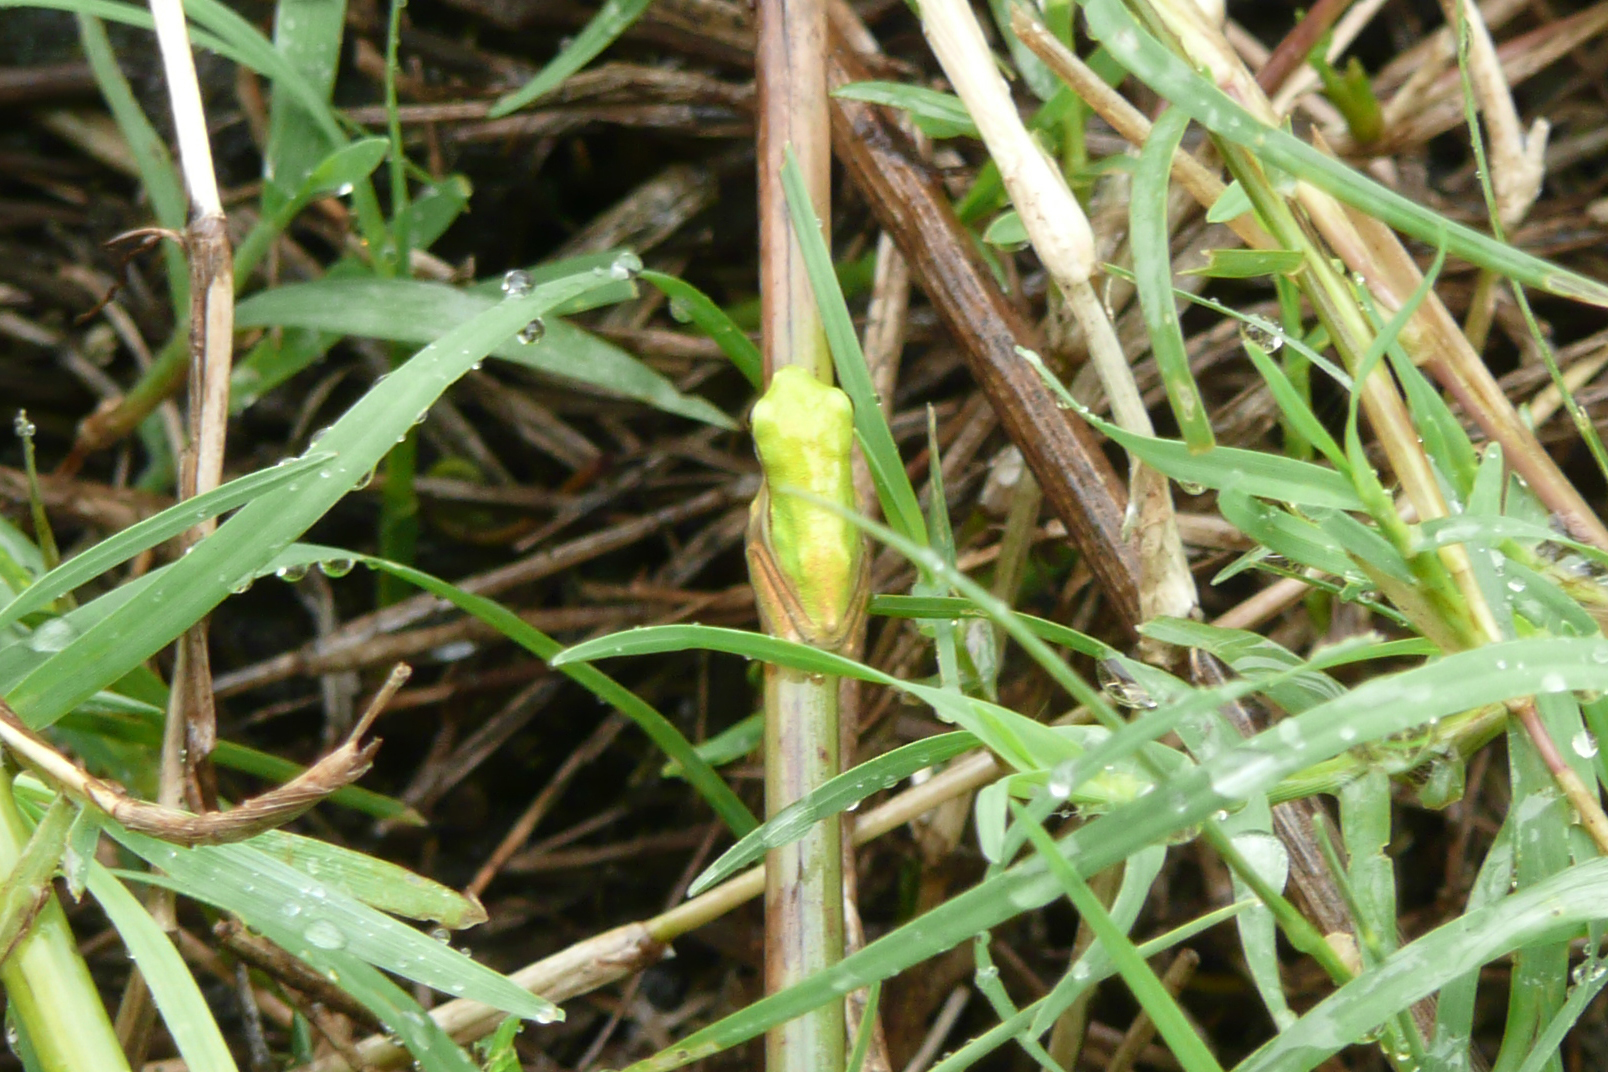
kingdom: Animalia
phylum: Chordata
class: Amphibia
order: Anura
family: Pelodryadidae
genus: Litoria
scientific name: Litoria fallax
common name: Eastern dwarf treefrog
